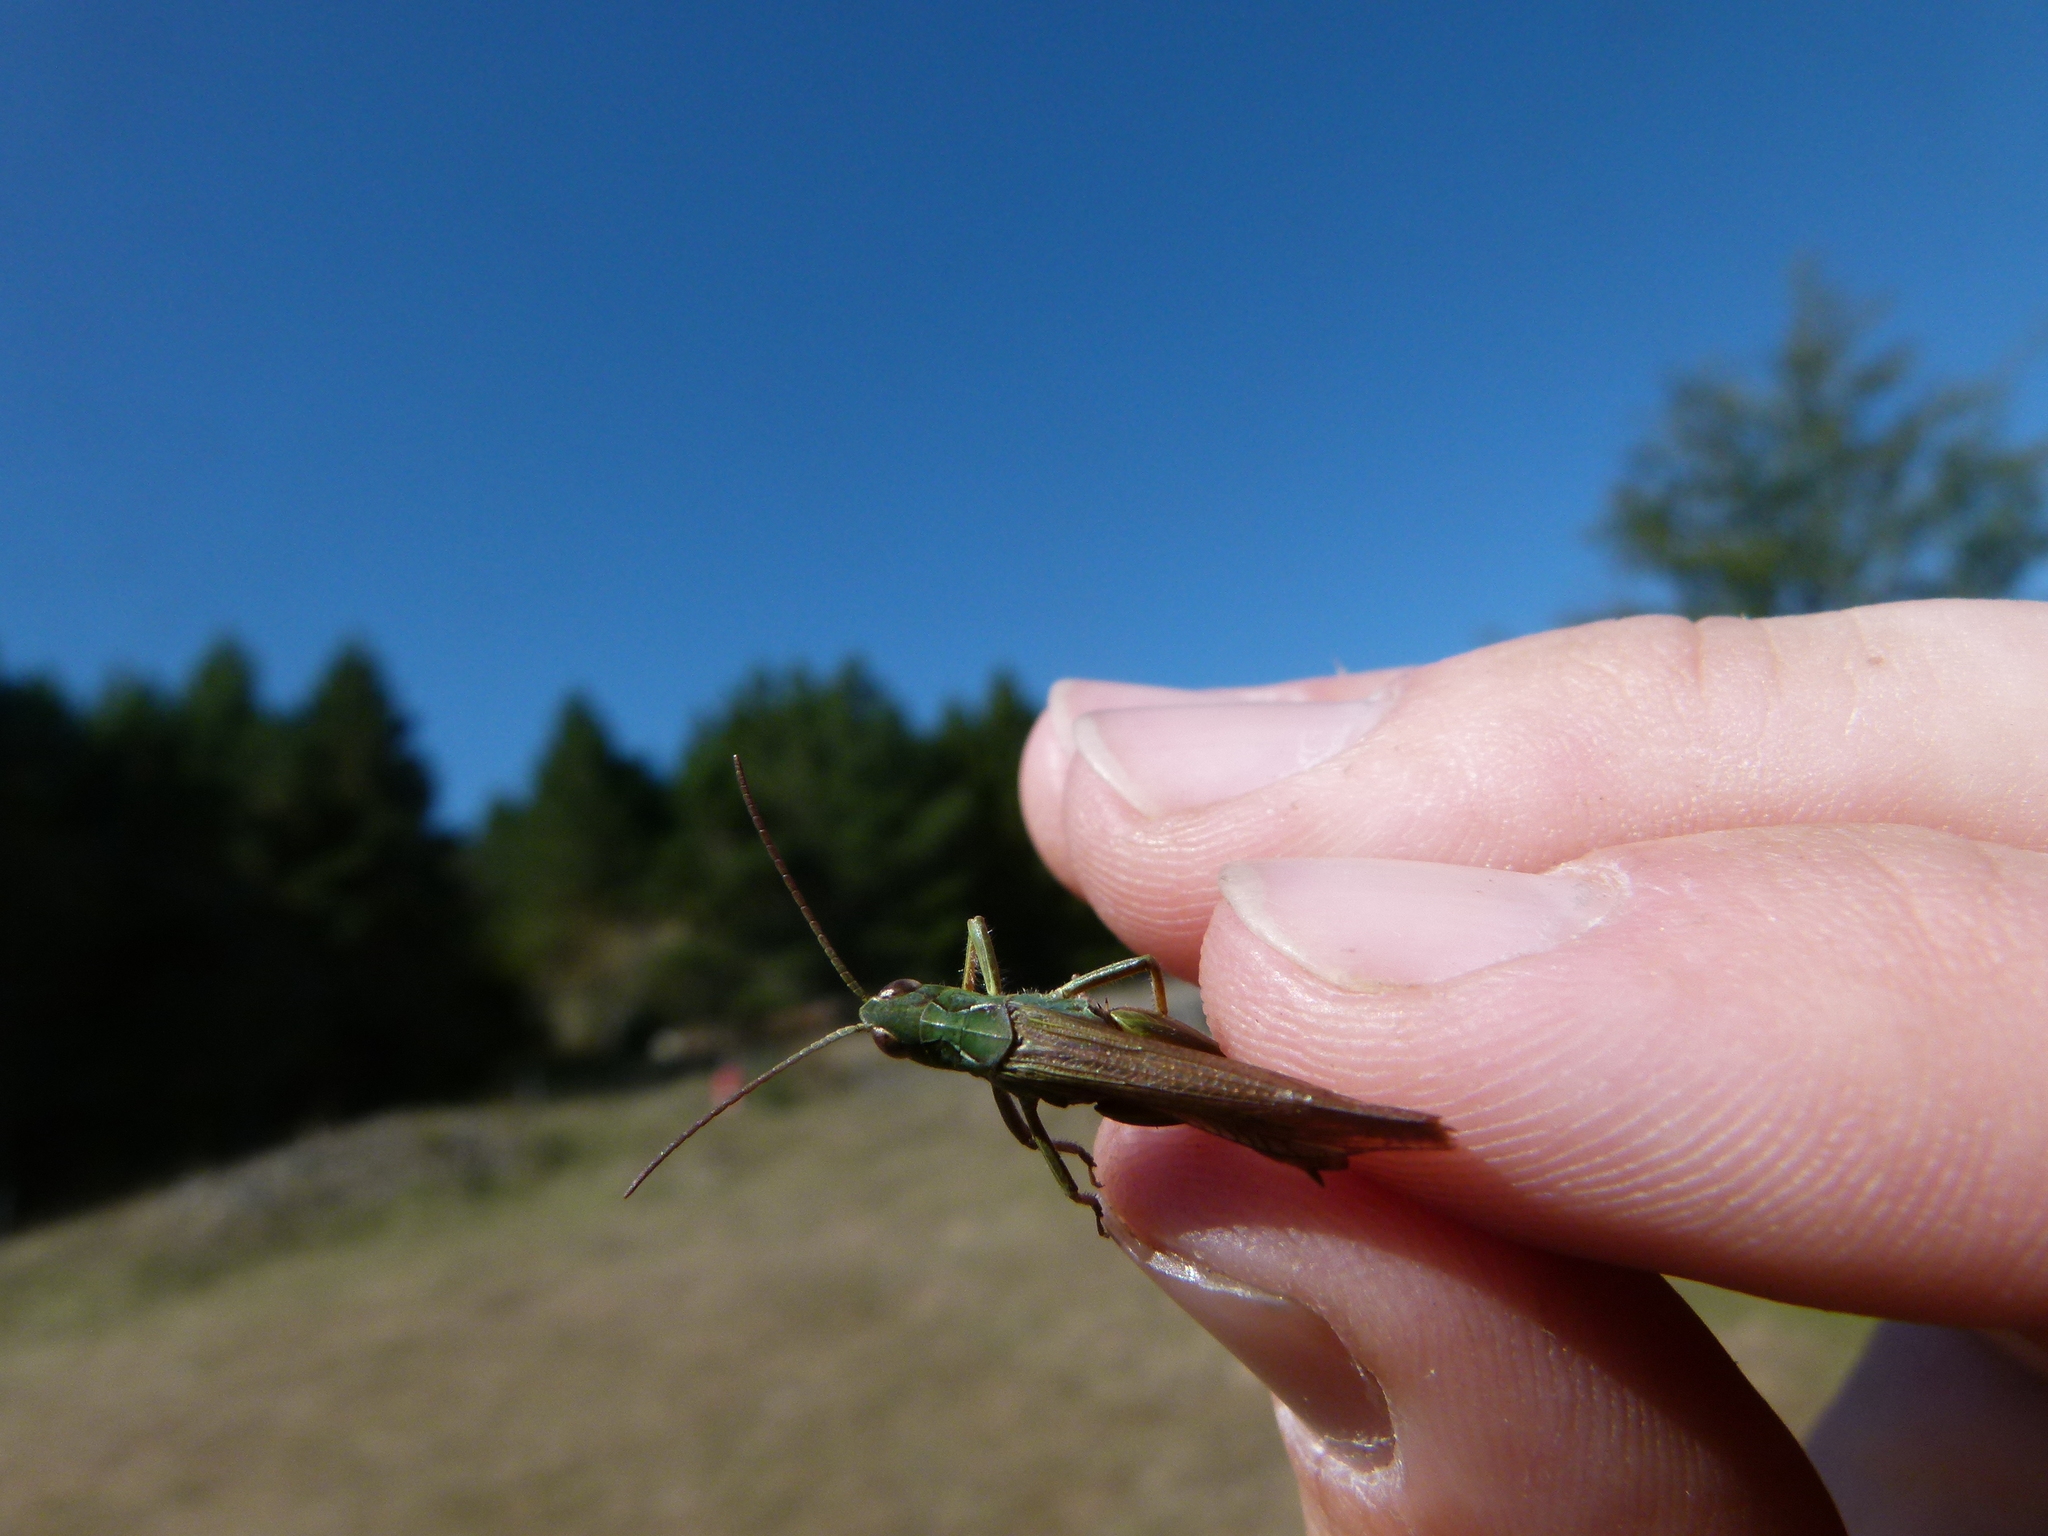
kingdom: Animalia
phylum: Arthropoda
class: Insecta
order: Orthoptera
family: Acrididae
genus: Chorthippus
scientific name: Chorthippus biguttulus
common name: Bow-winged grasshopper
